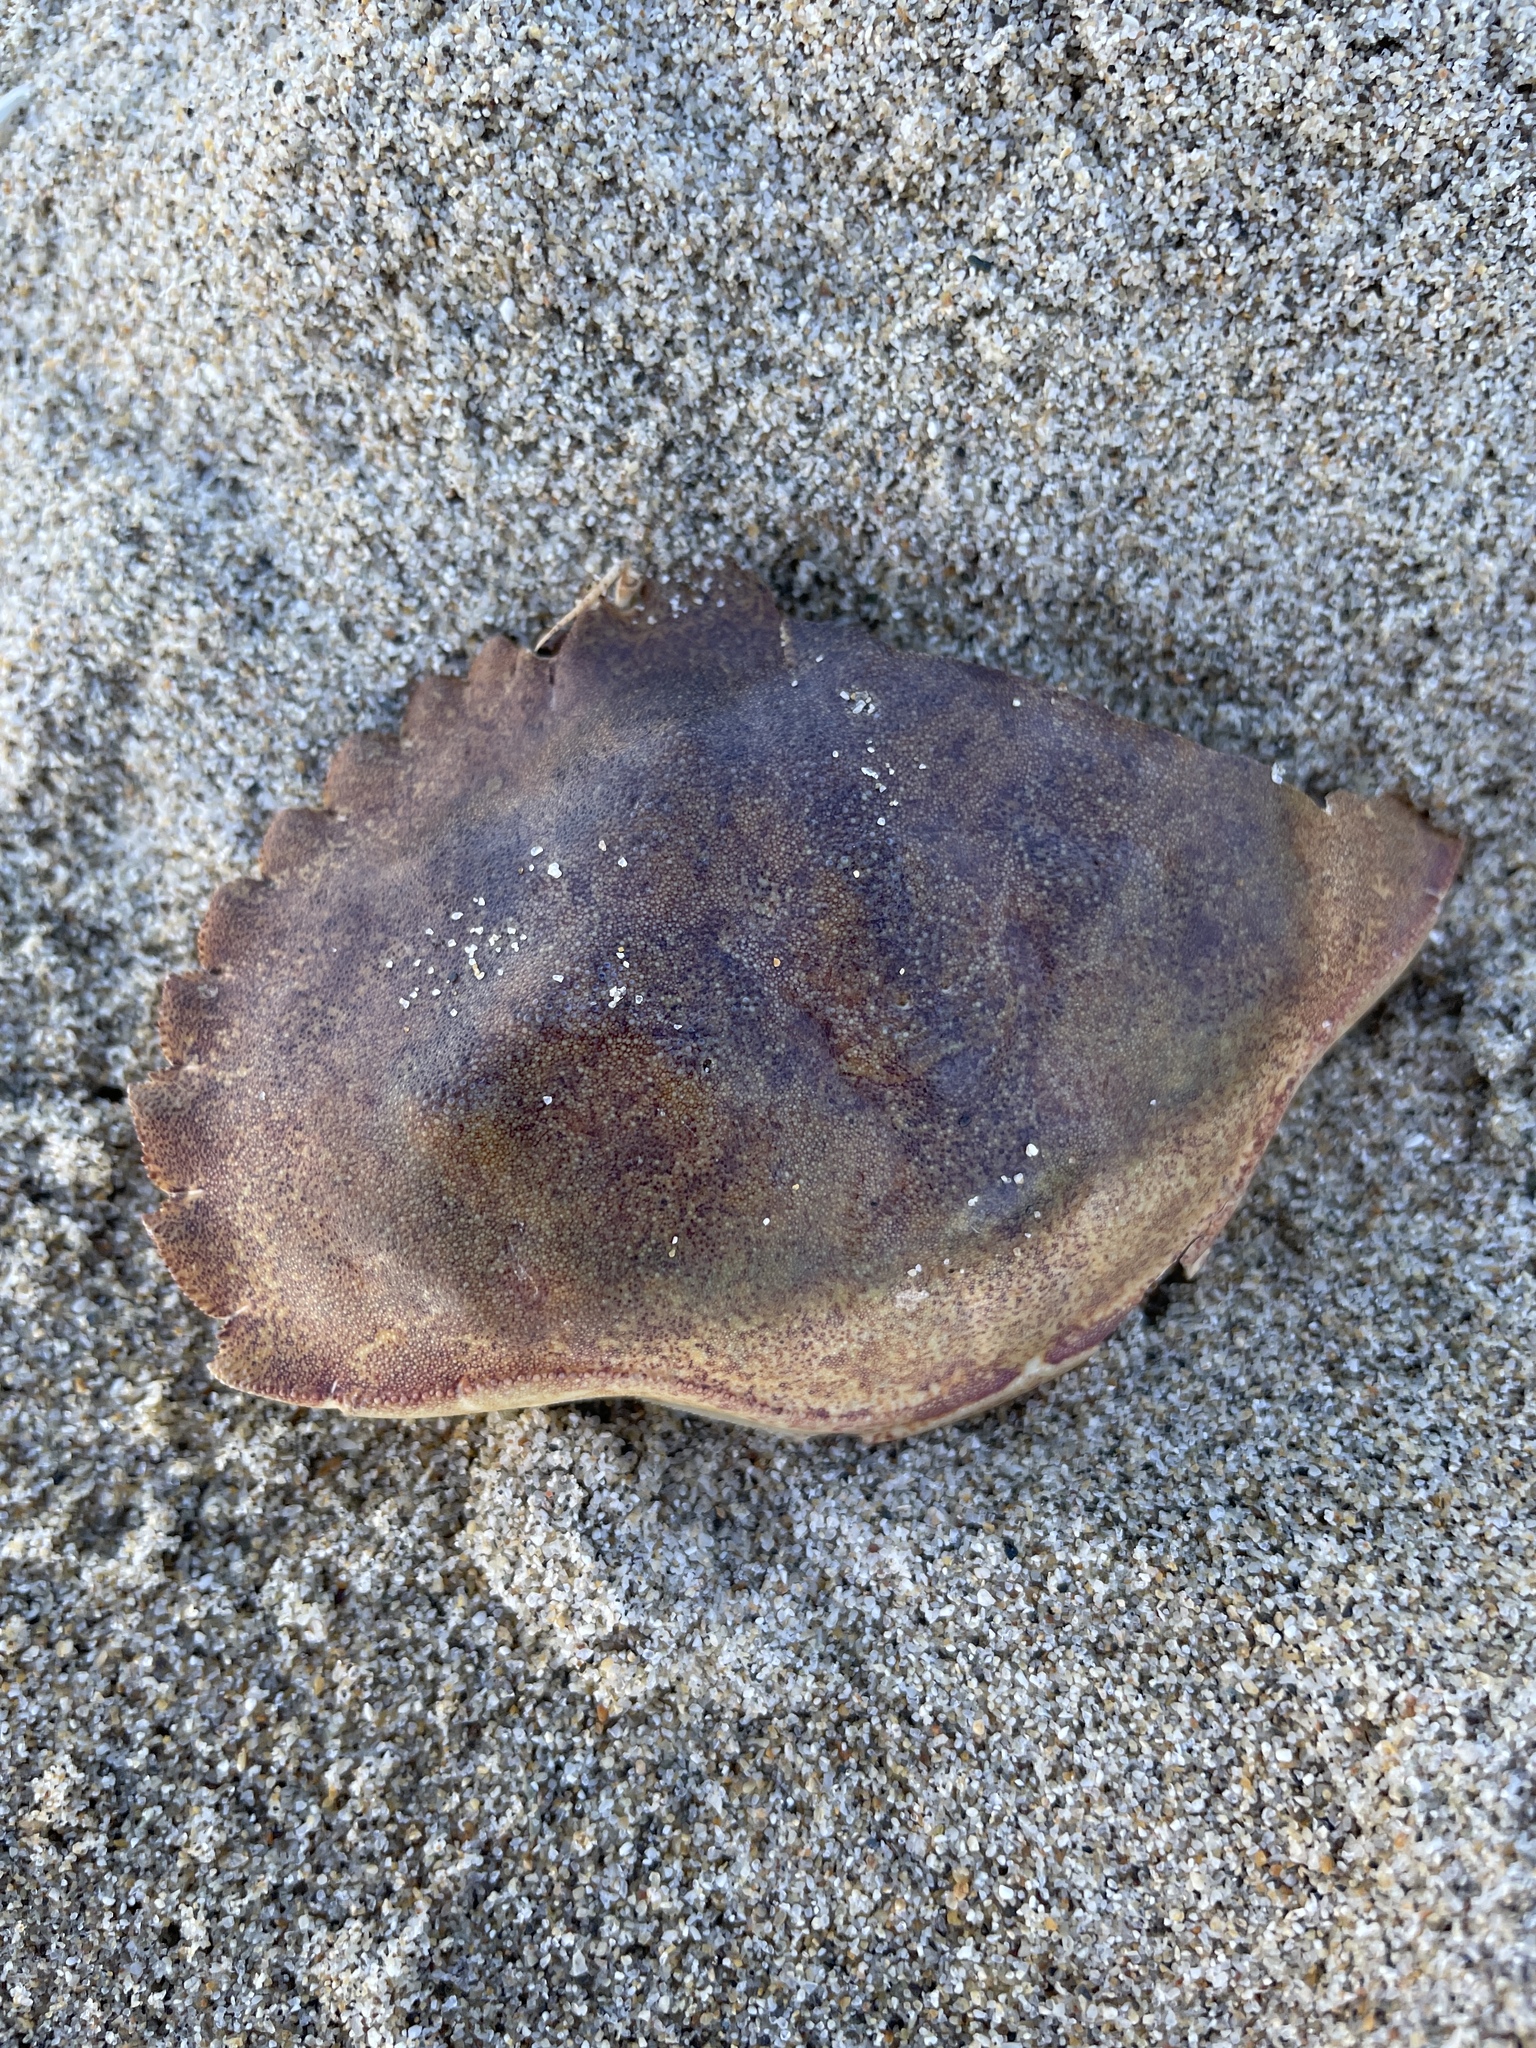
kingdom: Animalia
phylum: Arthropoda
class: Malacostraca
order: Decapoda
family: Cancridae
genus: Metacarcinus
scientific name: Metacarcinus anthonyi
